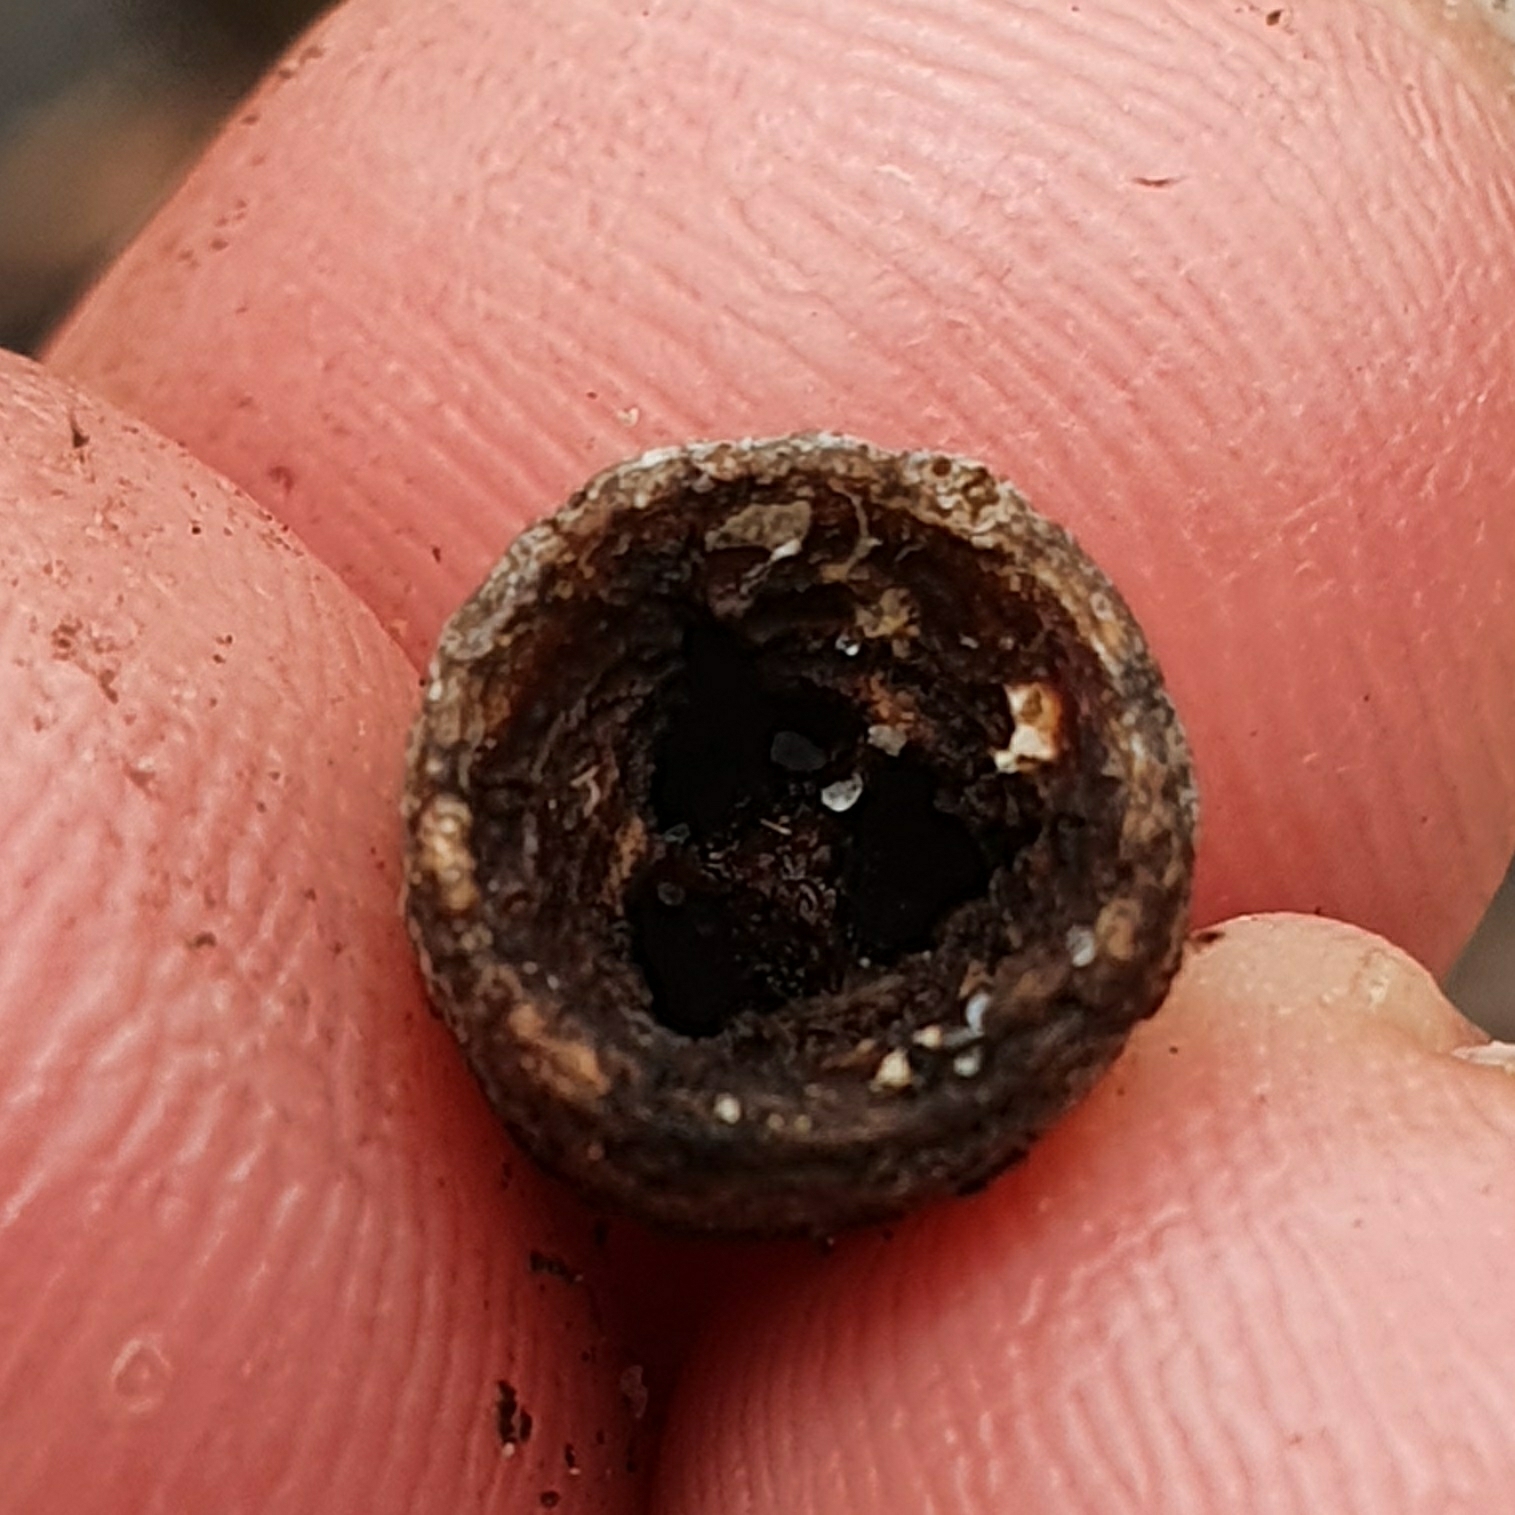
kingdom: Plantae
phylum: Tracheophyta
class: Magnoliopsida
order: Myrtales
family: Myrtaceae
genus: Eucalyptus
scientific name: Eucalyptus botryoides
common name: Bangalay
